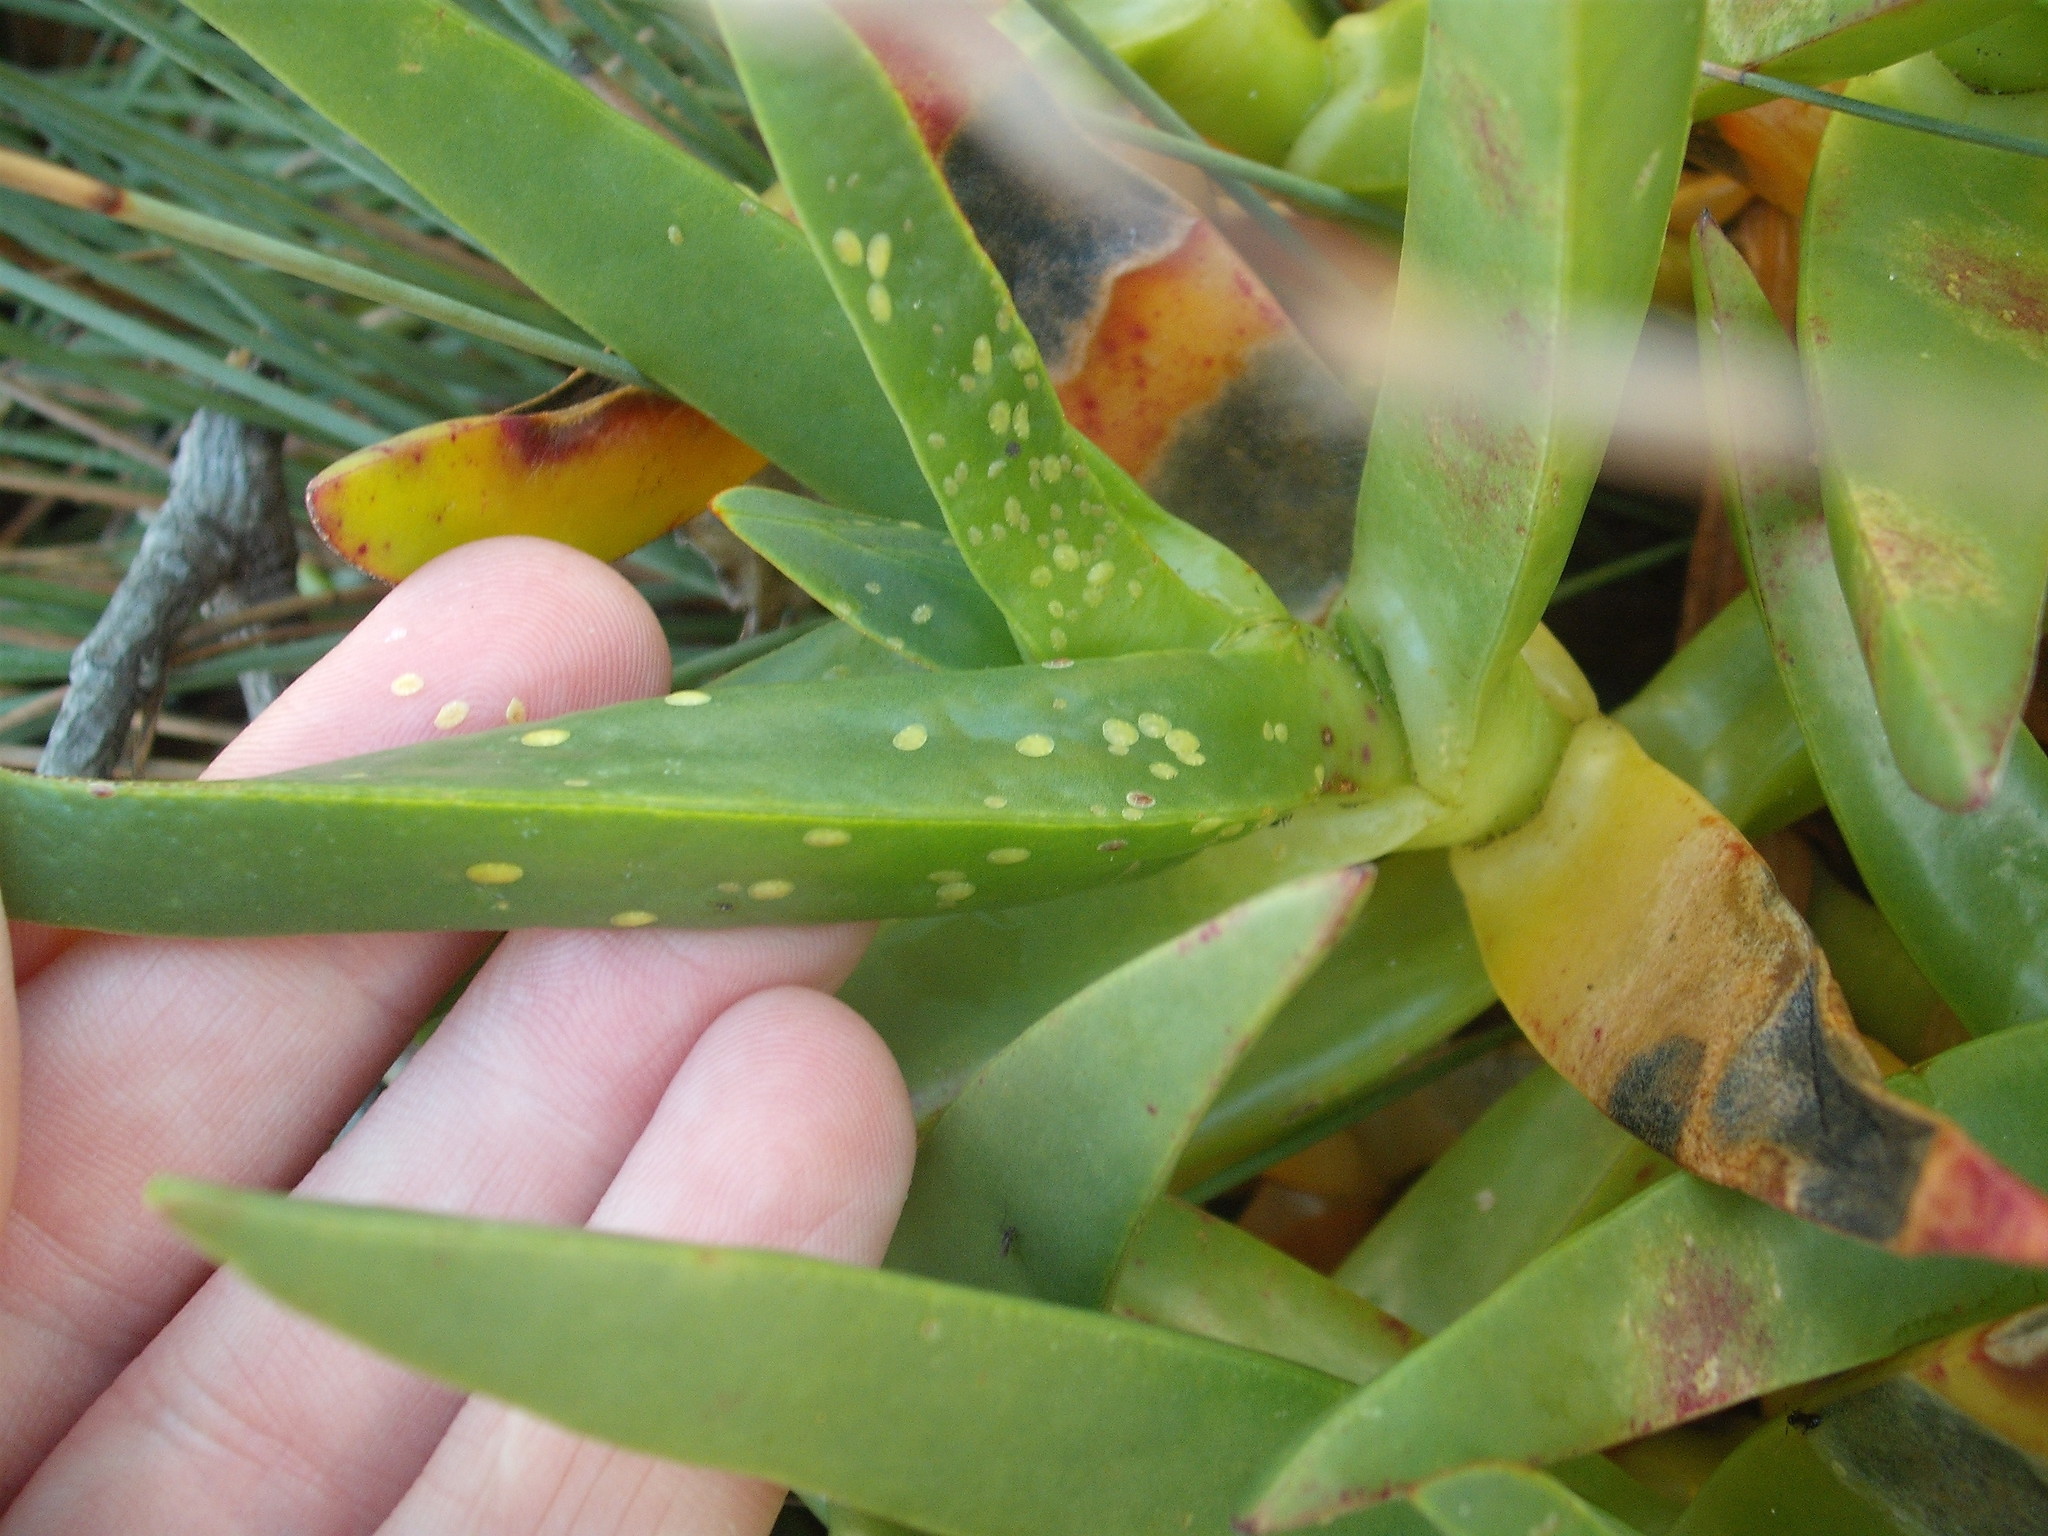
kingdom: Animalia
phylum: Arthropoda
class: Insecta
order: Hemiptera
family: Coccidae
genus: Pulvinariella
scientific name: Pulvinariella mesembryanthemi
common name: Cottony pigface scale
